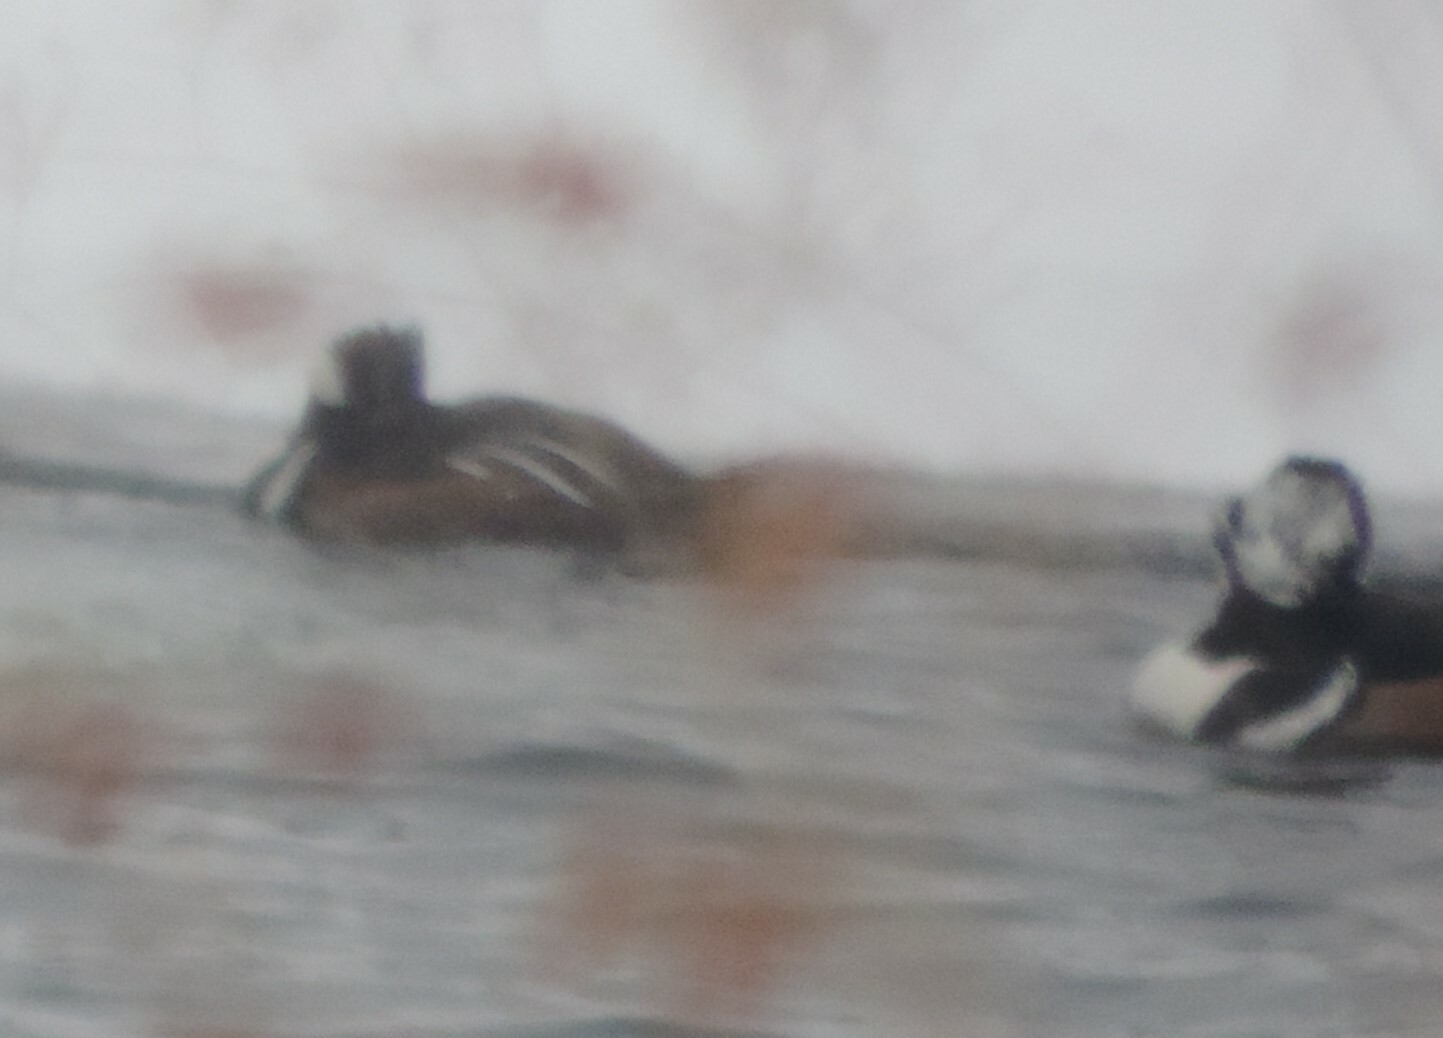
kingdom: Animalia
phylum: Chordata
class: Aves
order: Anseriformes
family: Anatidae
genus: Lophodytes
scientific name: Lophodytes cucullatus
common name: Hooded merganser
